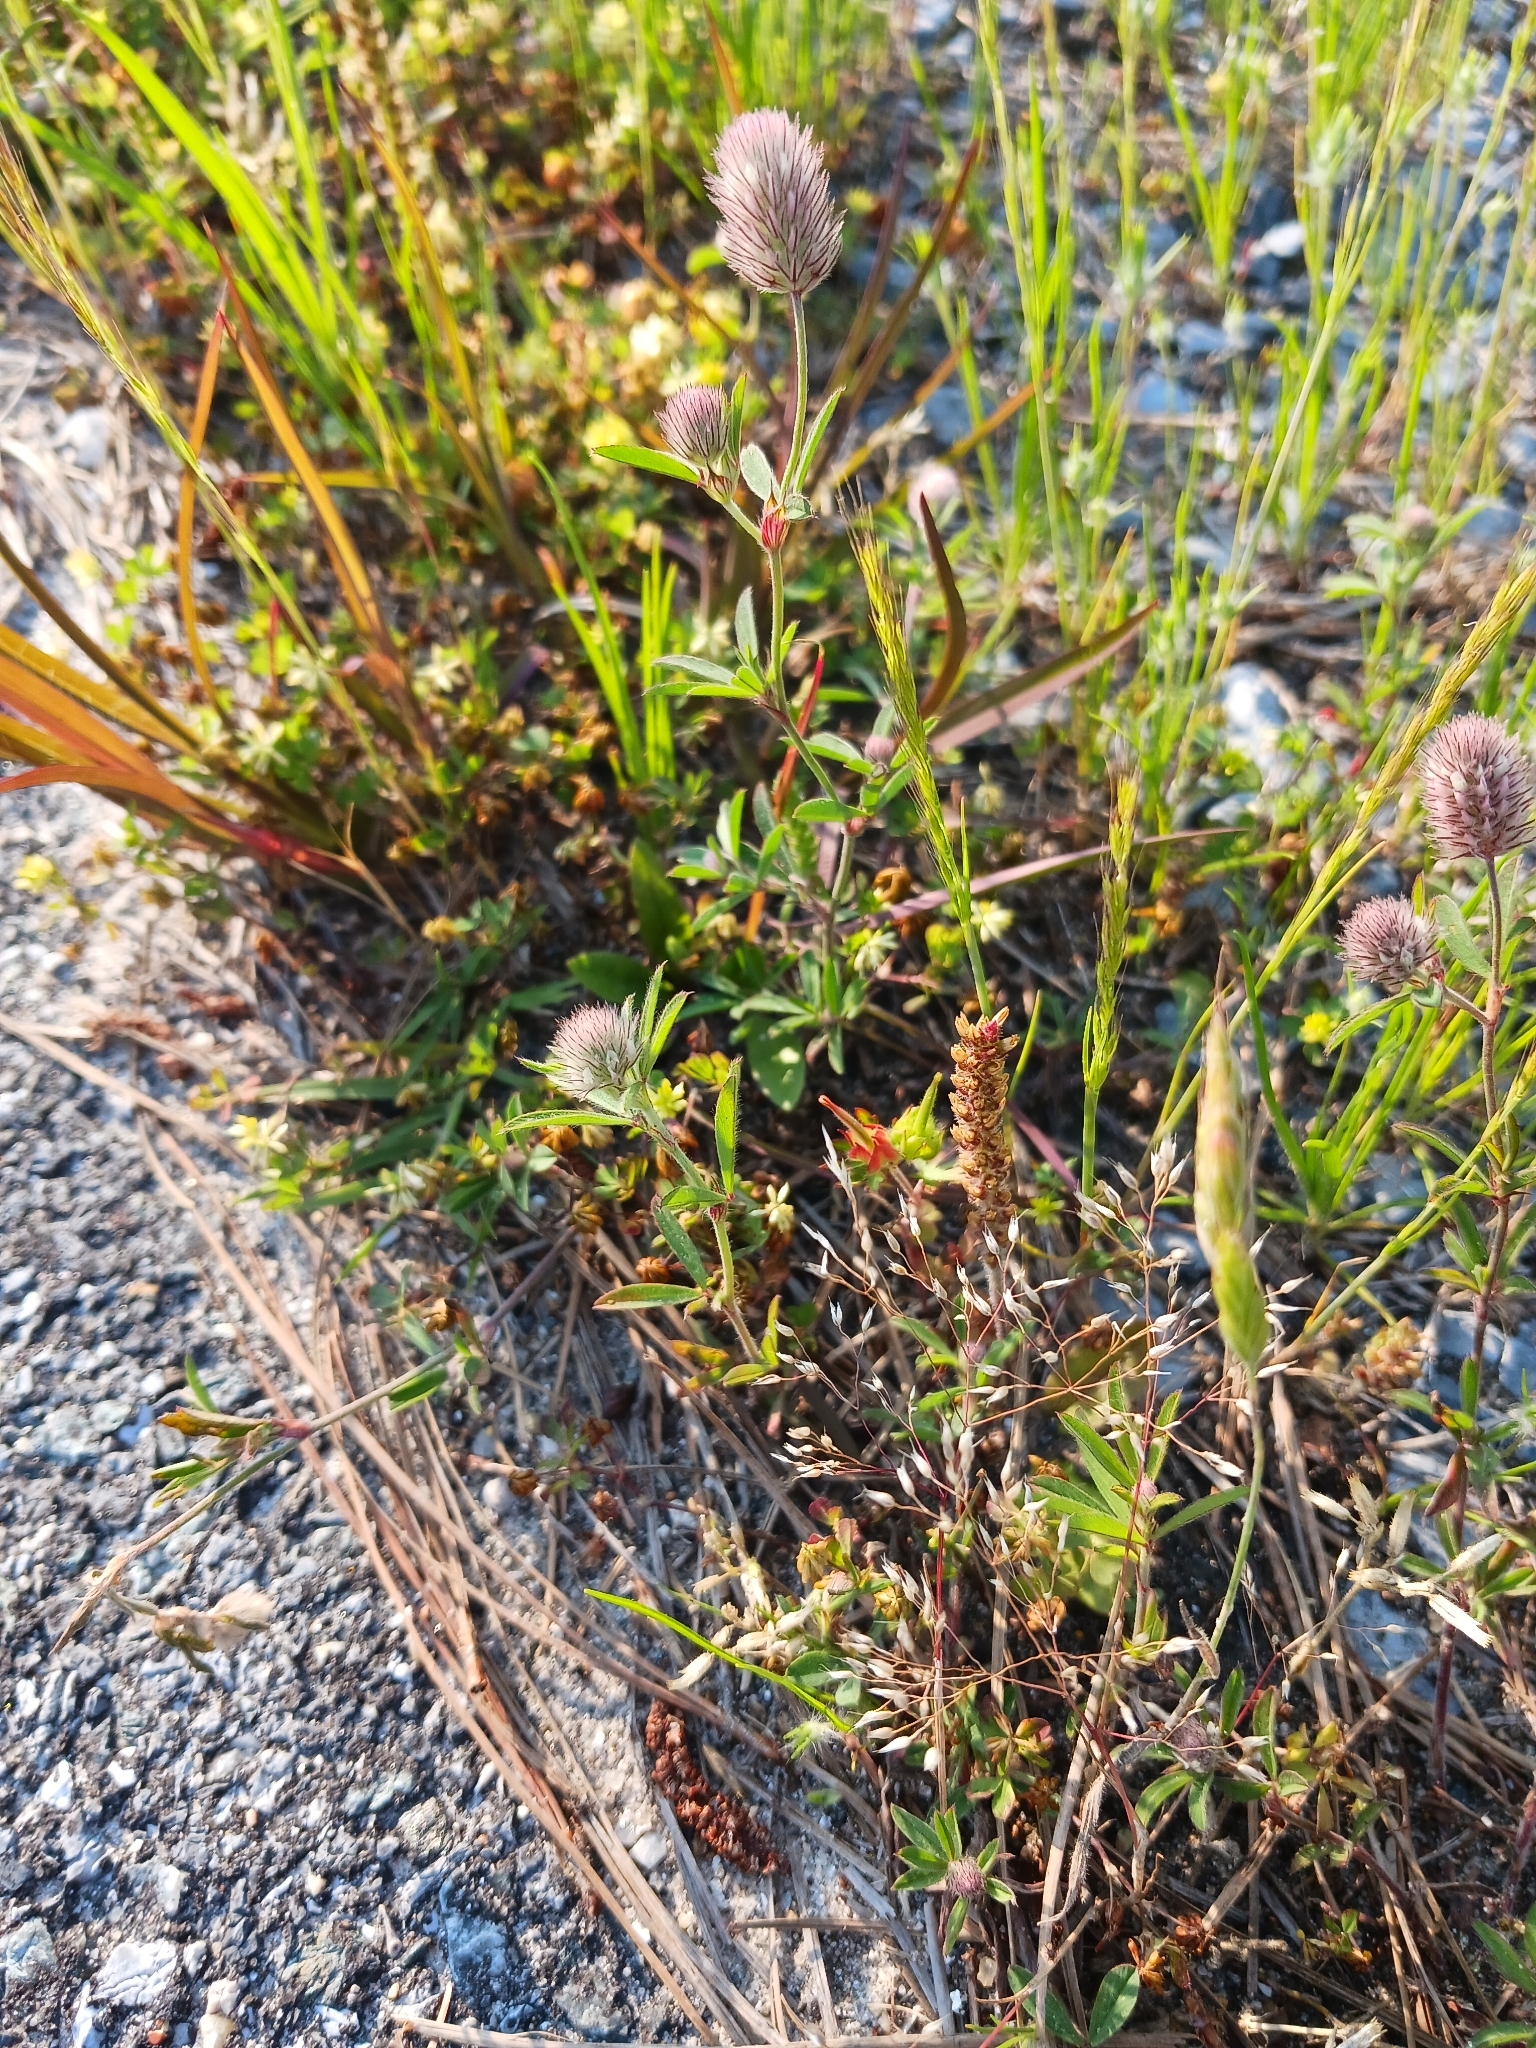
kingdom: Plantae
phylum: Tracheophyta
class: Magnoliopsida
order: Fabales
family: Fabaceae
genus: Trifolium
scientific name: Trifolium arvense
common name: Hare's-foot clover
